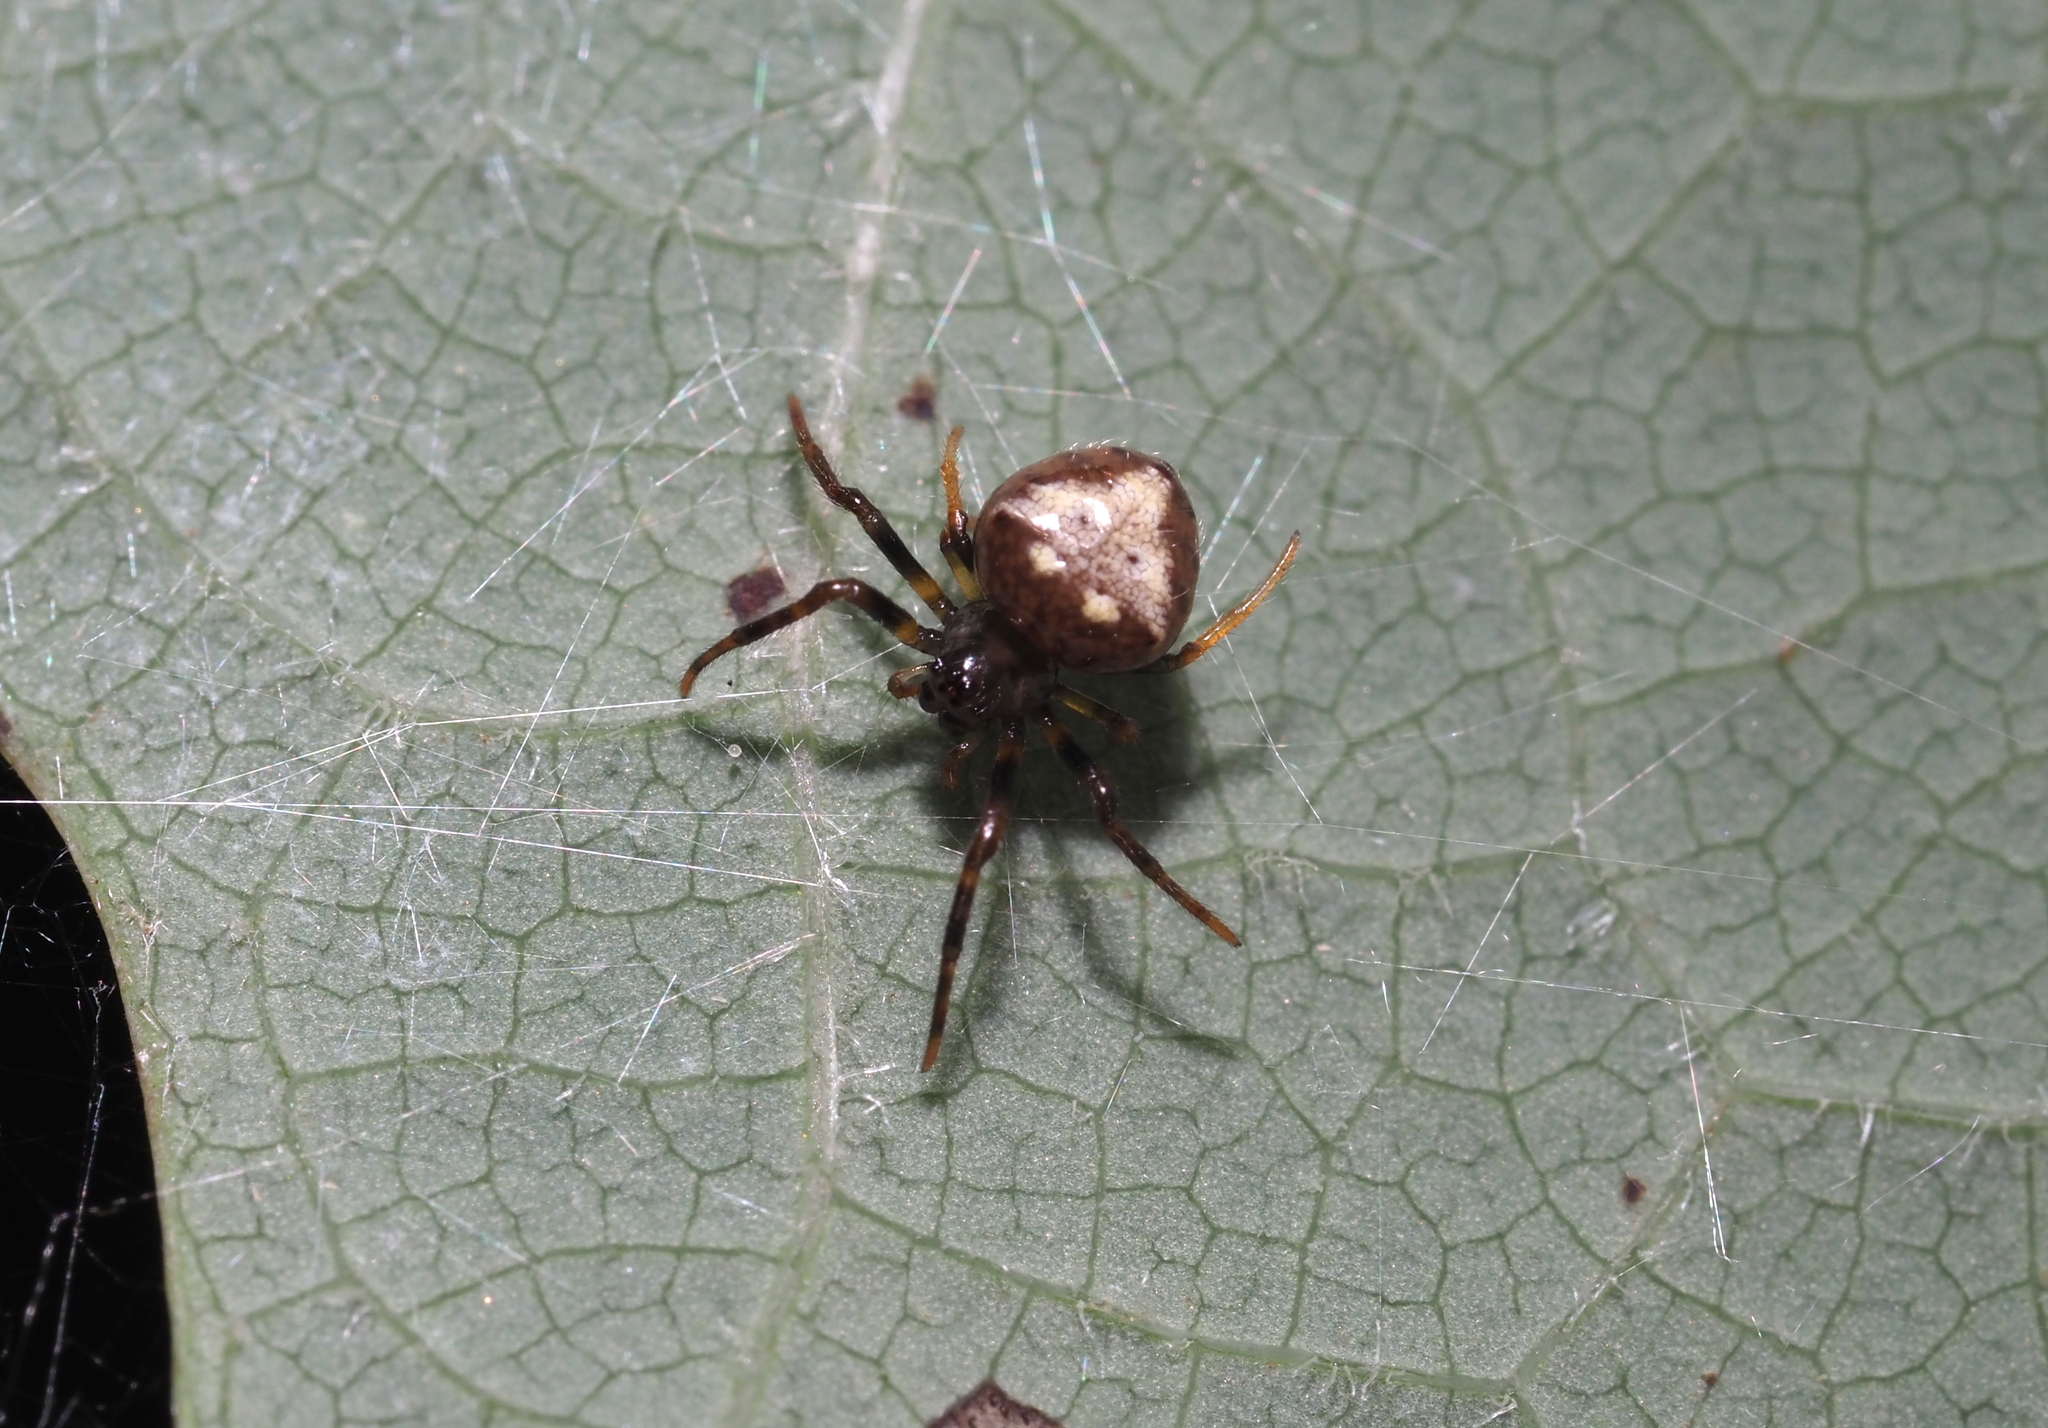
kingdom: Animalia
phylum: Arthropoda
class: Arachnida
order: Araneae
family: Araneidae
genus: Verrucosa
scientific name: Verrucosa arenata
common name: Orb weavers
